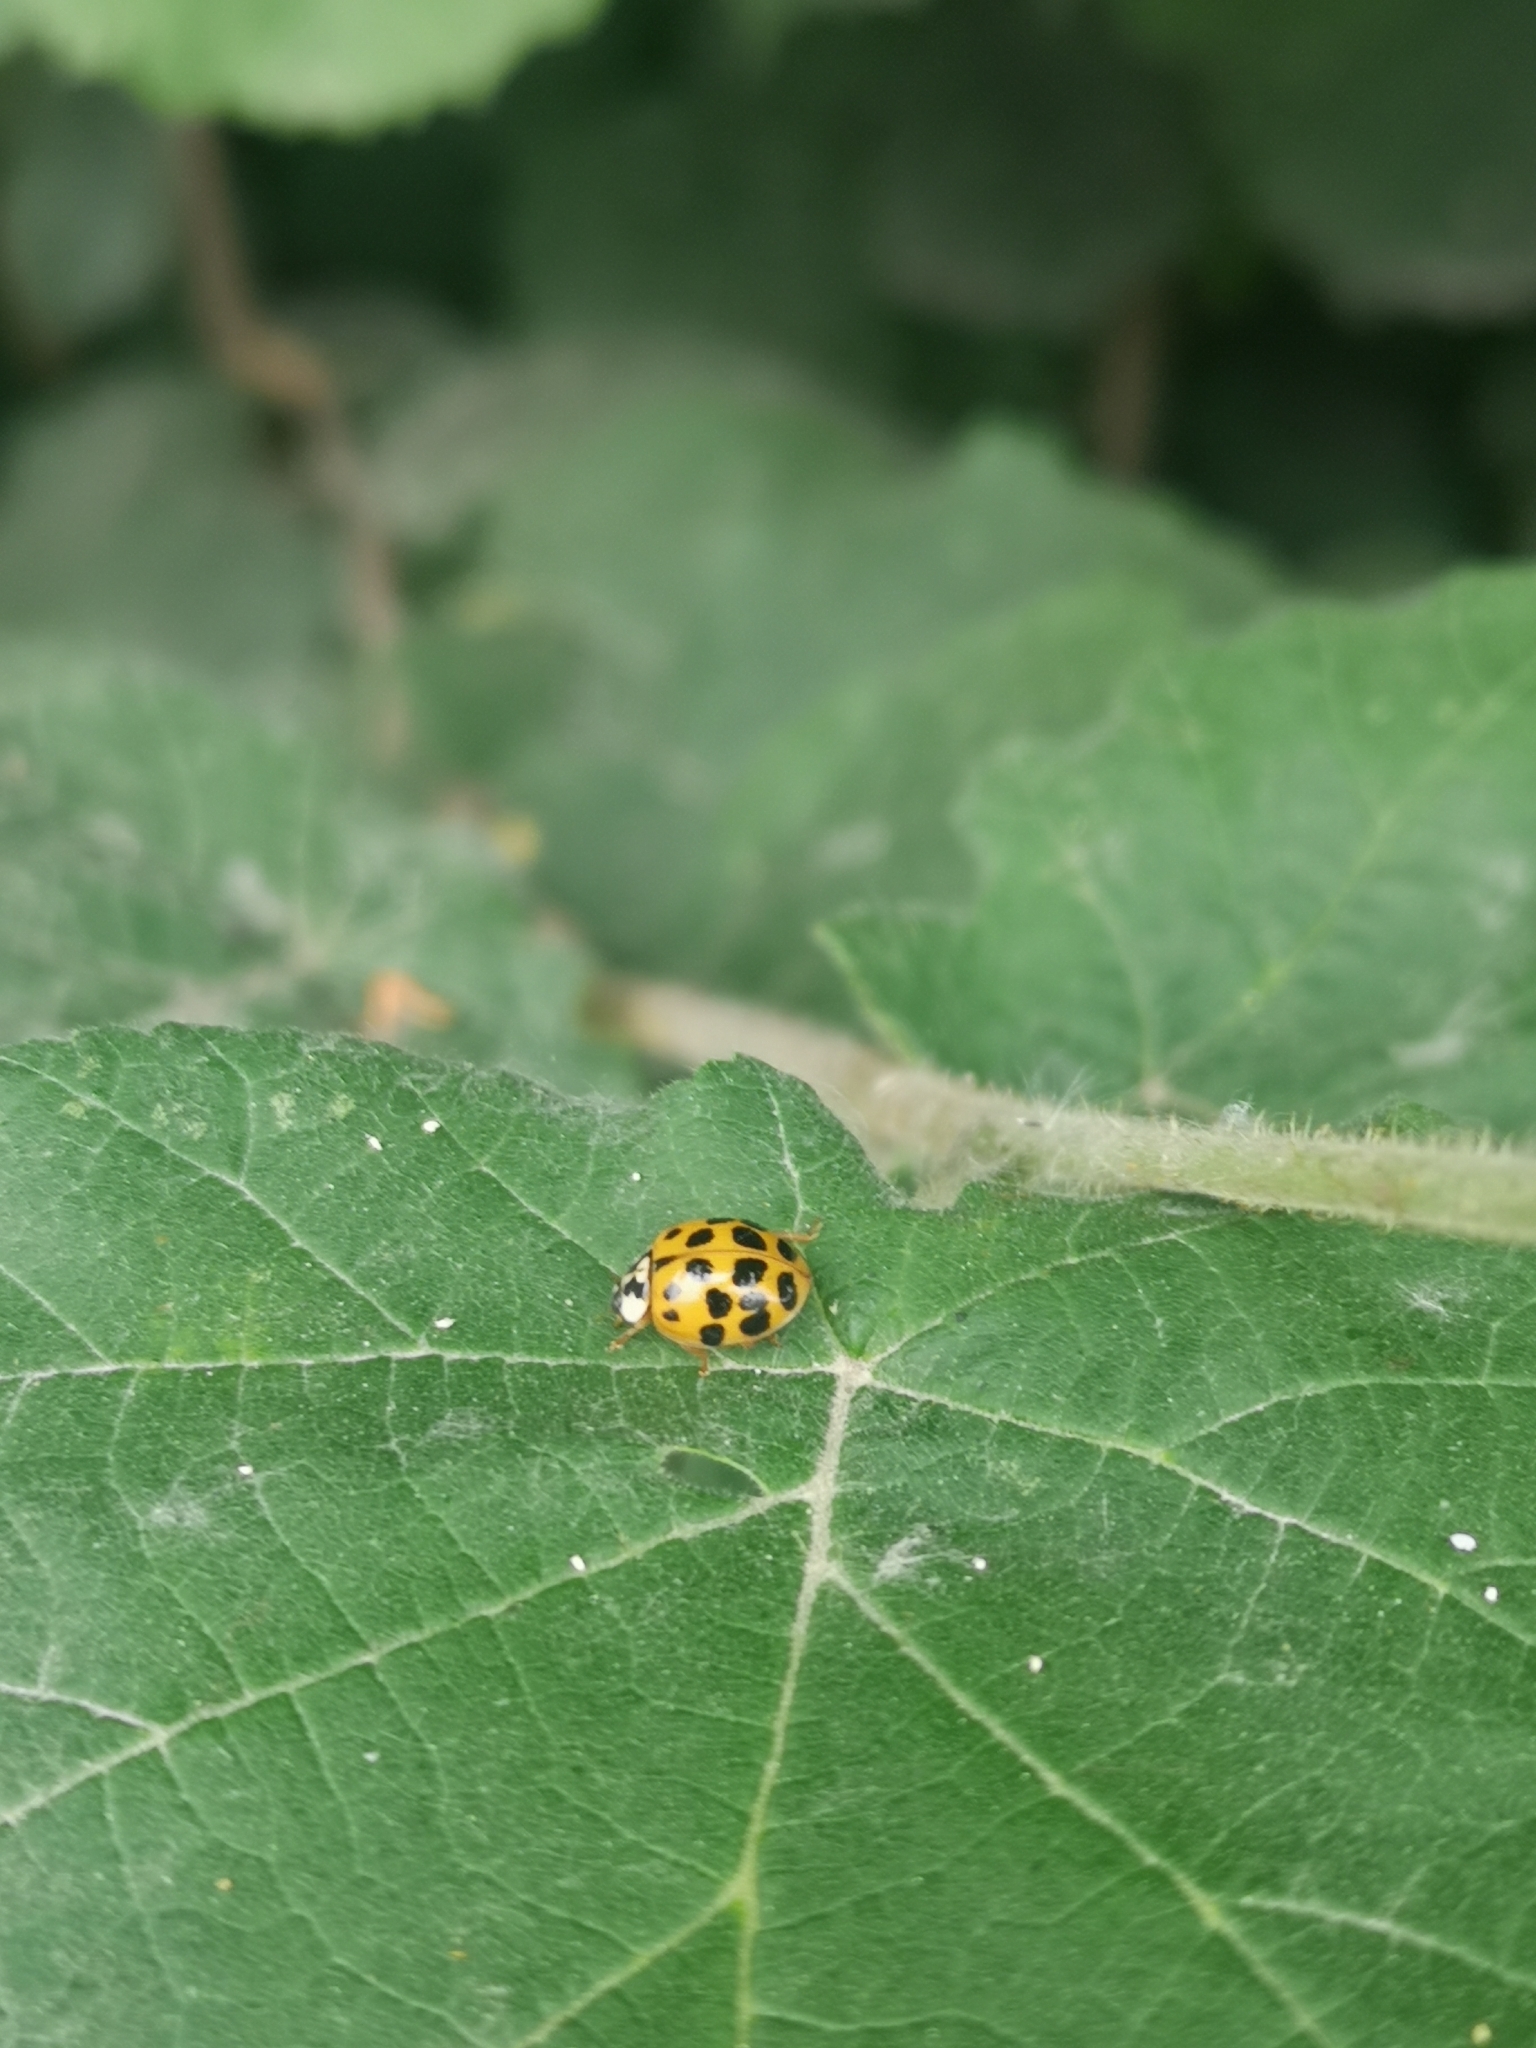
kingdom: Animalia
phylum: Arthropoda
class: Insecta
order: Coleoptera
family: Coccinellidae
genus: Harmonia
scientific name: Harmonia axyridis
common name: Harlequin ladybird
